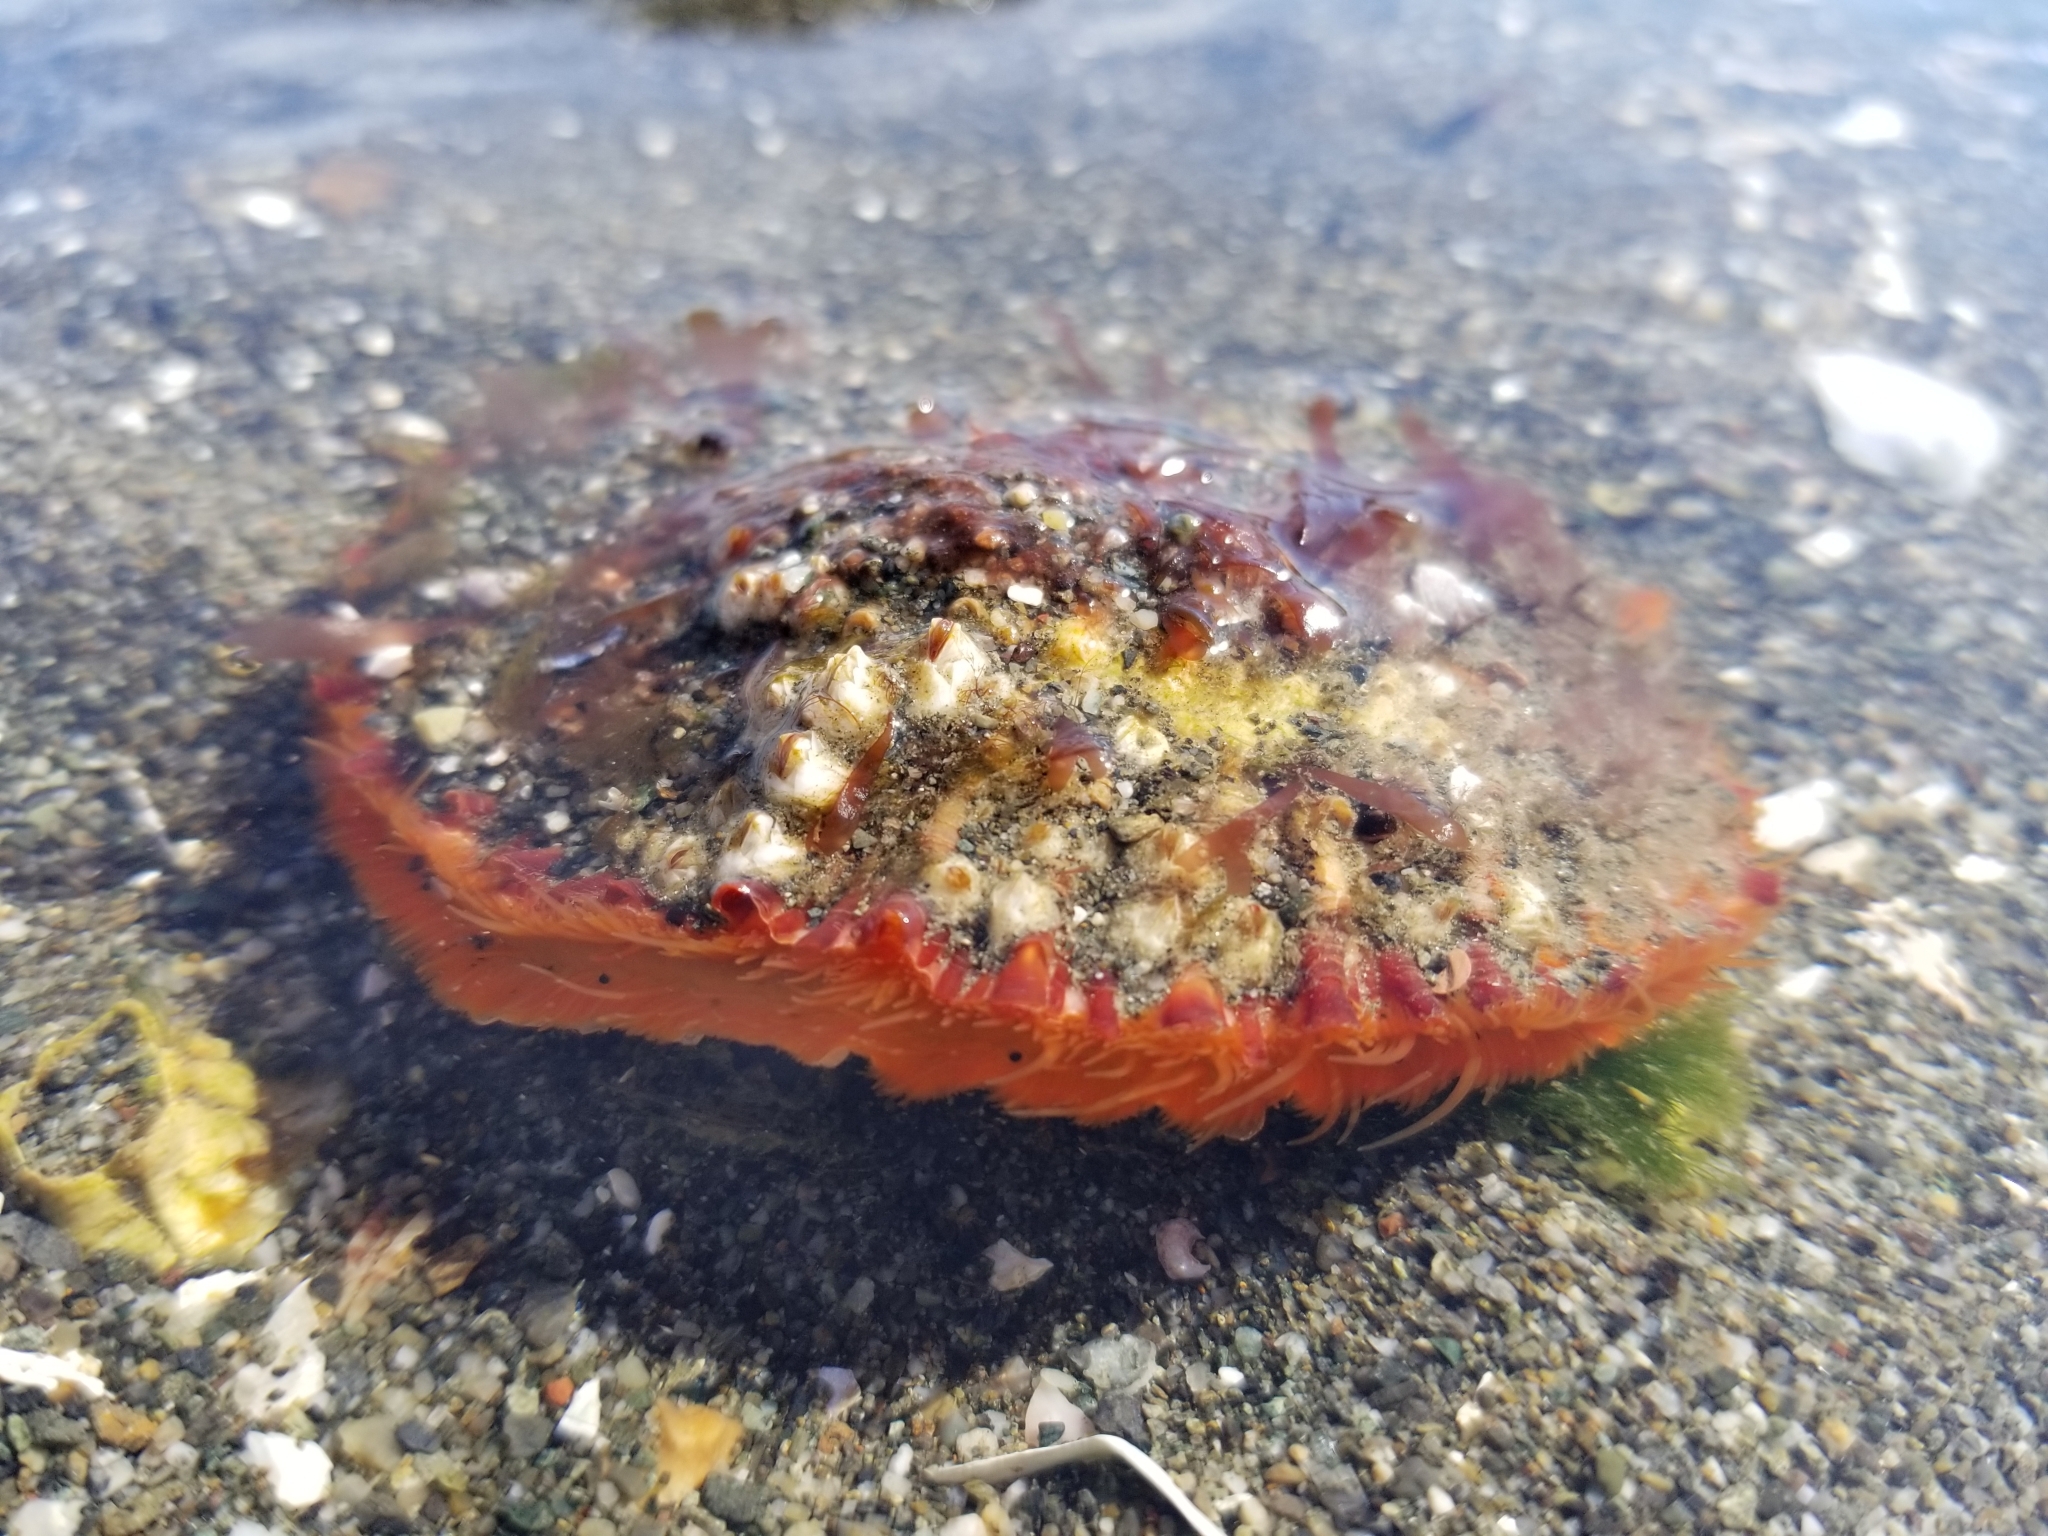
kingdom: Animalia
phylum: Mollusca
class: Bivalvia
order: Pectinida
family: Pectinidae
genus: Crassadoma
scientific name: Crassadoma gigantea
